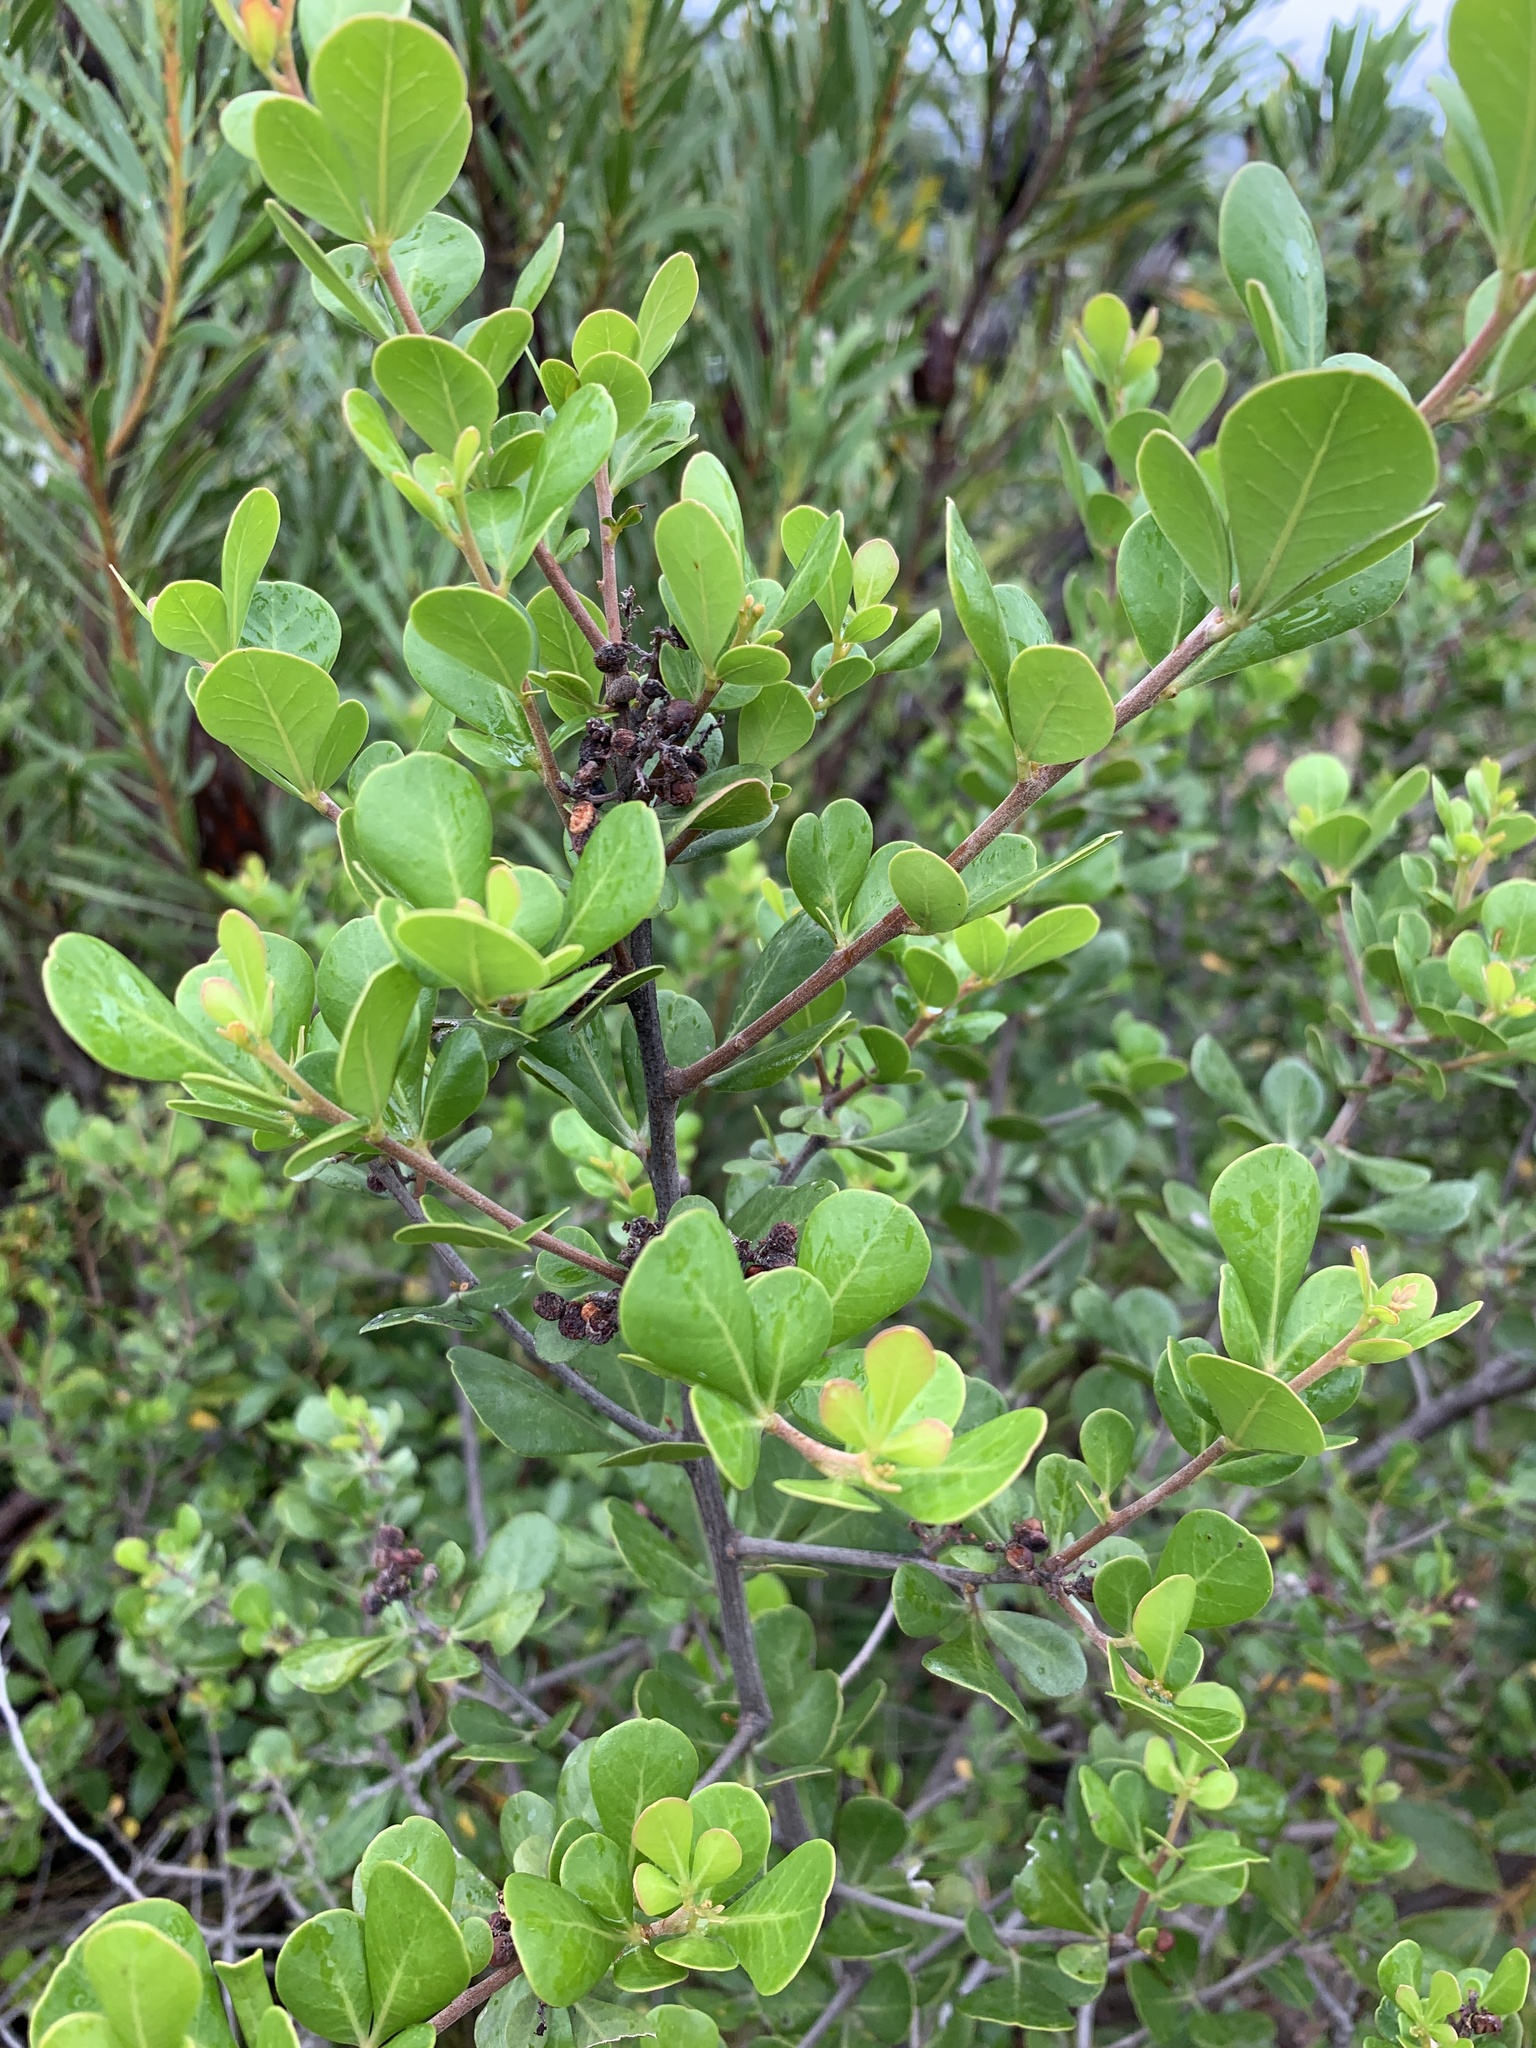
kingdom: Plantae
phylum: Tracheophyta
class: Magnoliopsida
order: Sapindales
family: Anacardiaceae
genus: Searsia
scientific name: Searsia lucida
